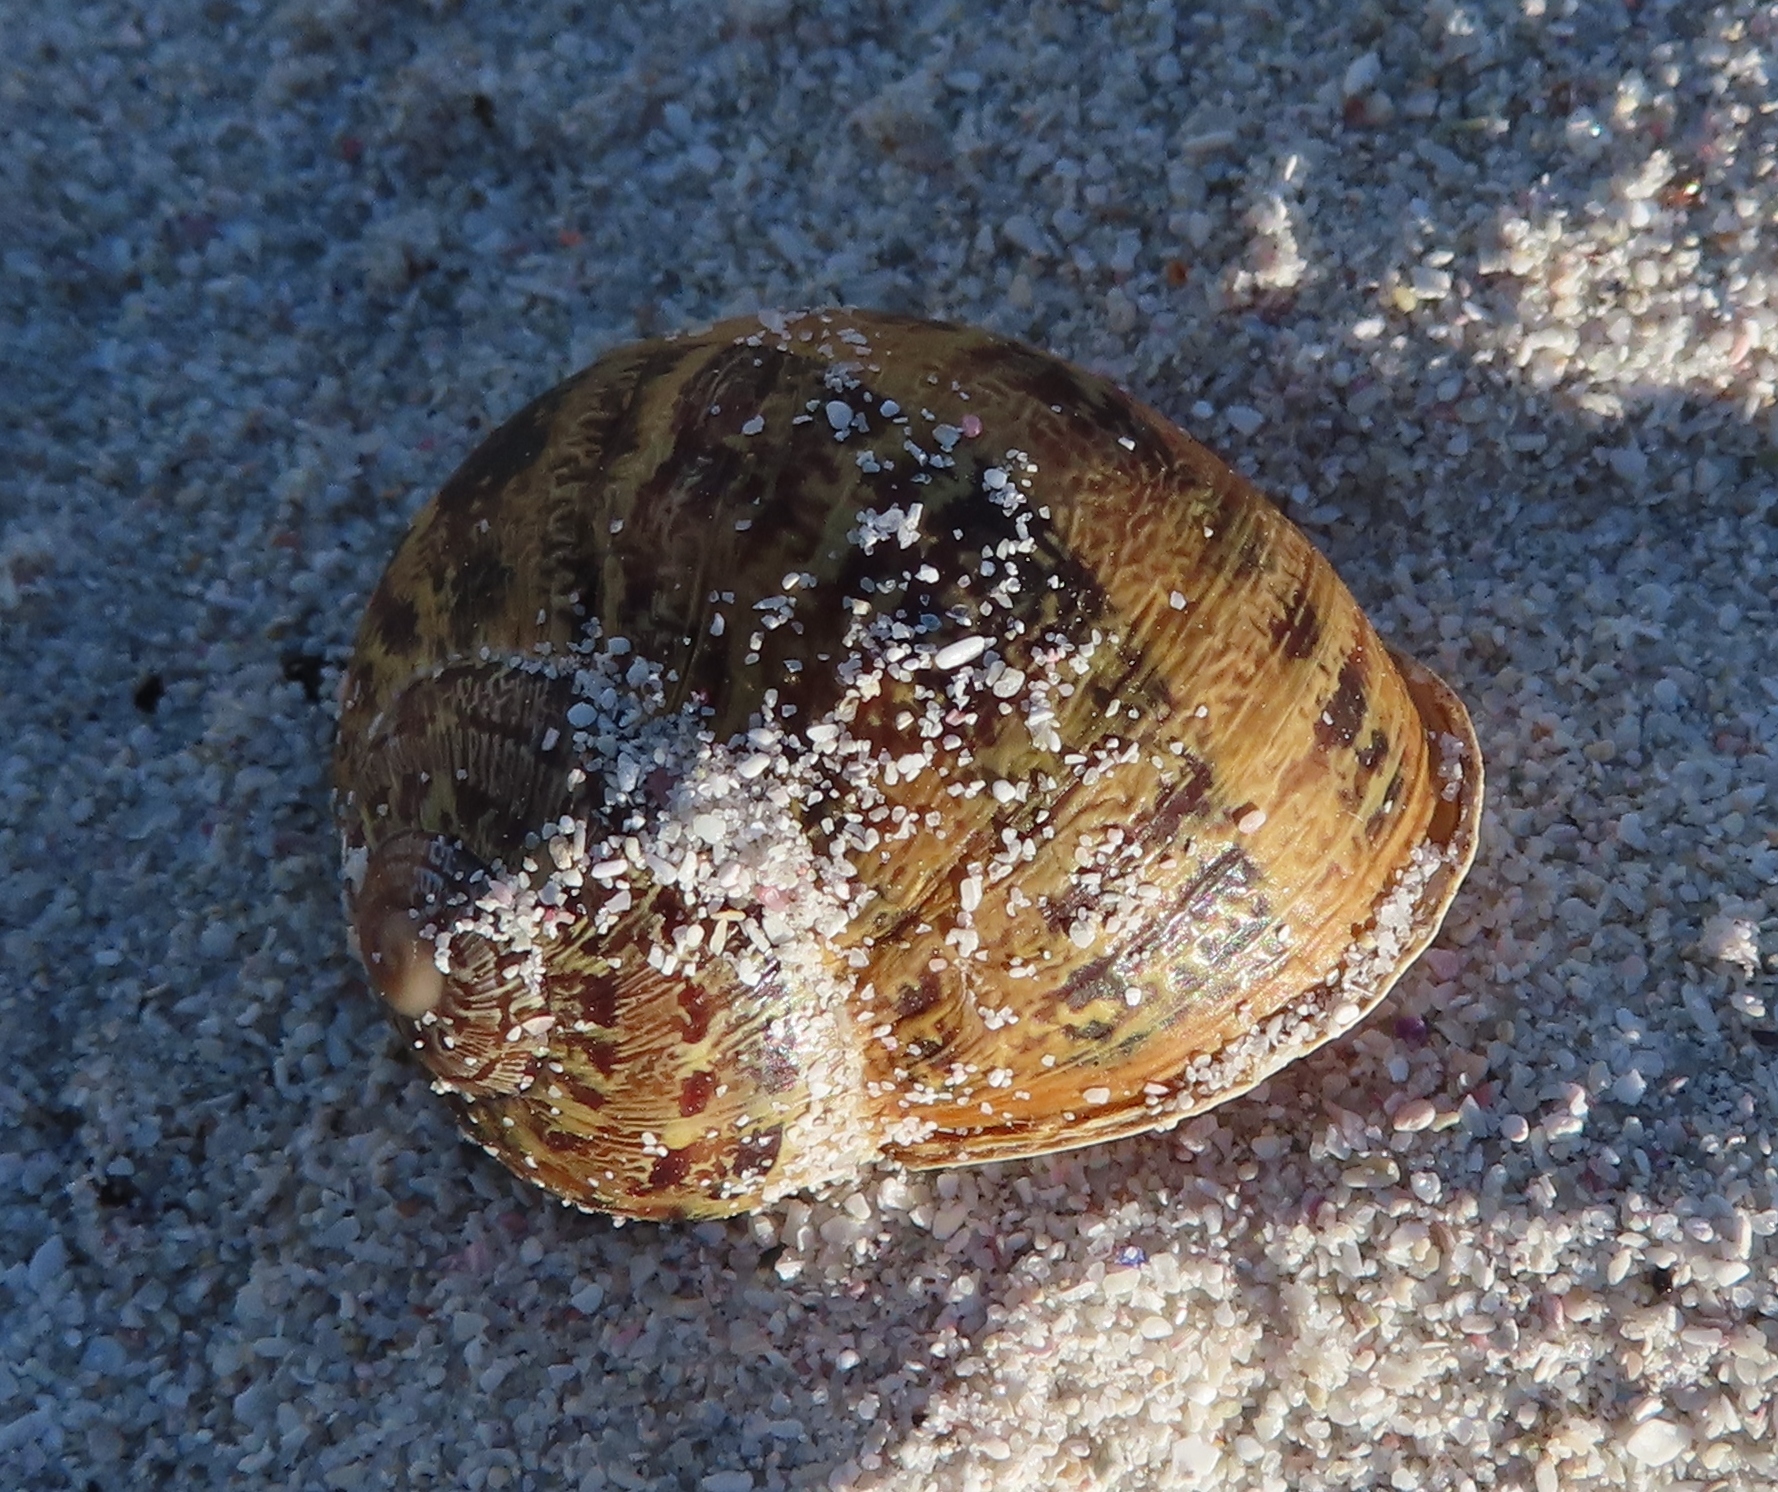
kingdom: Animalia
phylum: Mollusca
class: Gastropoda
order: Stylommatophora
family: Helicidae
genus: Cornu
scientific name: Cornu aspersum
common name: Brown garden snail
